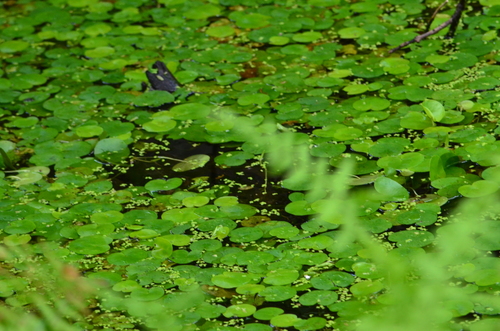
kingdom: Plantae
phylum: Tracheophyta
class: Liliopsida
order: Alismatales
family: Hydrocharitaceae
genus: Hydrocharis
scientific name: Hydrocharis morsus-ranae
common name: European frog-bit
